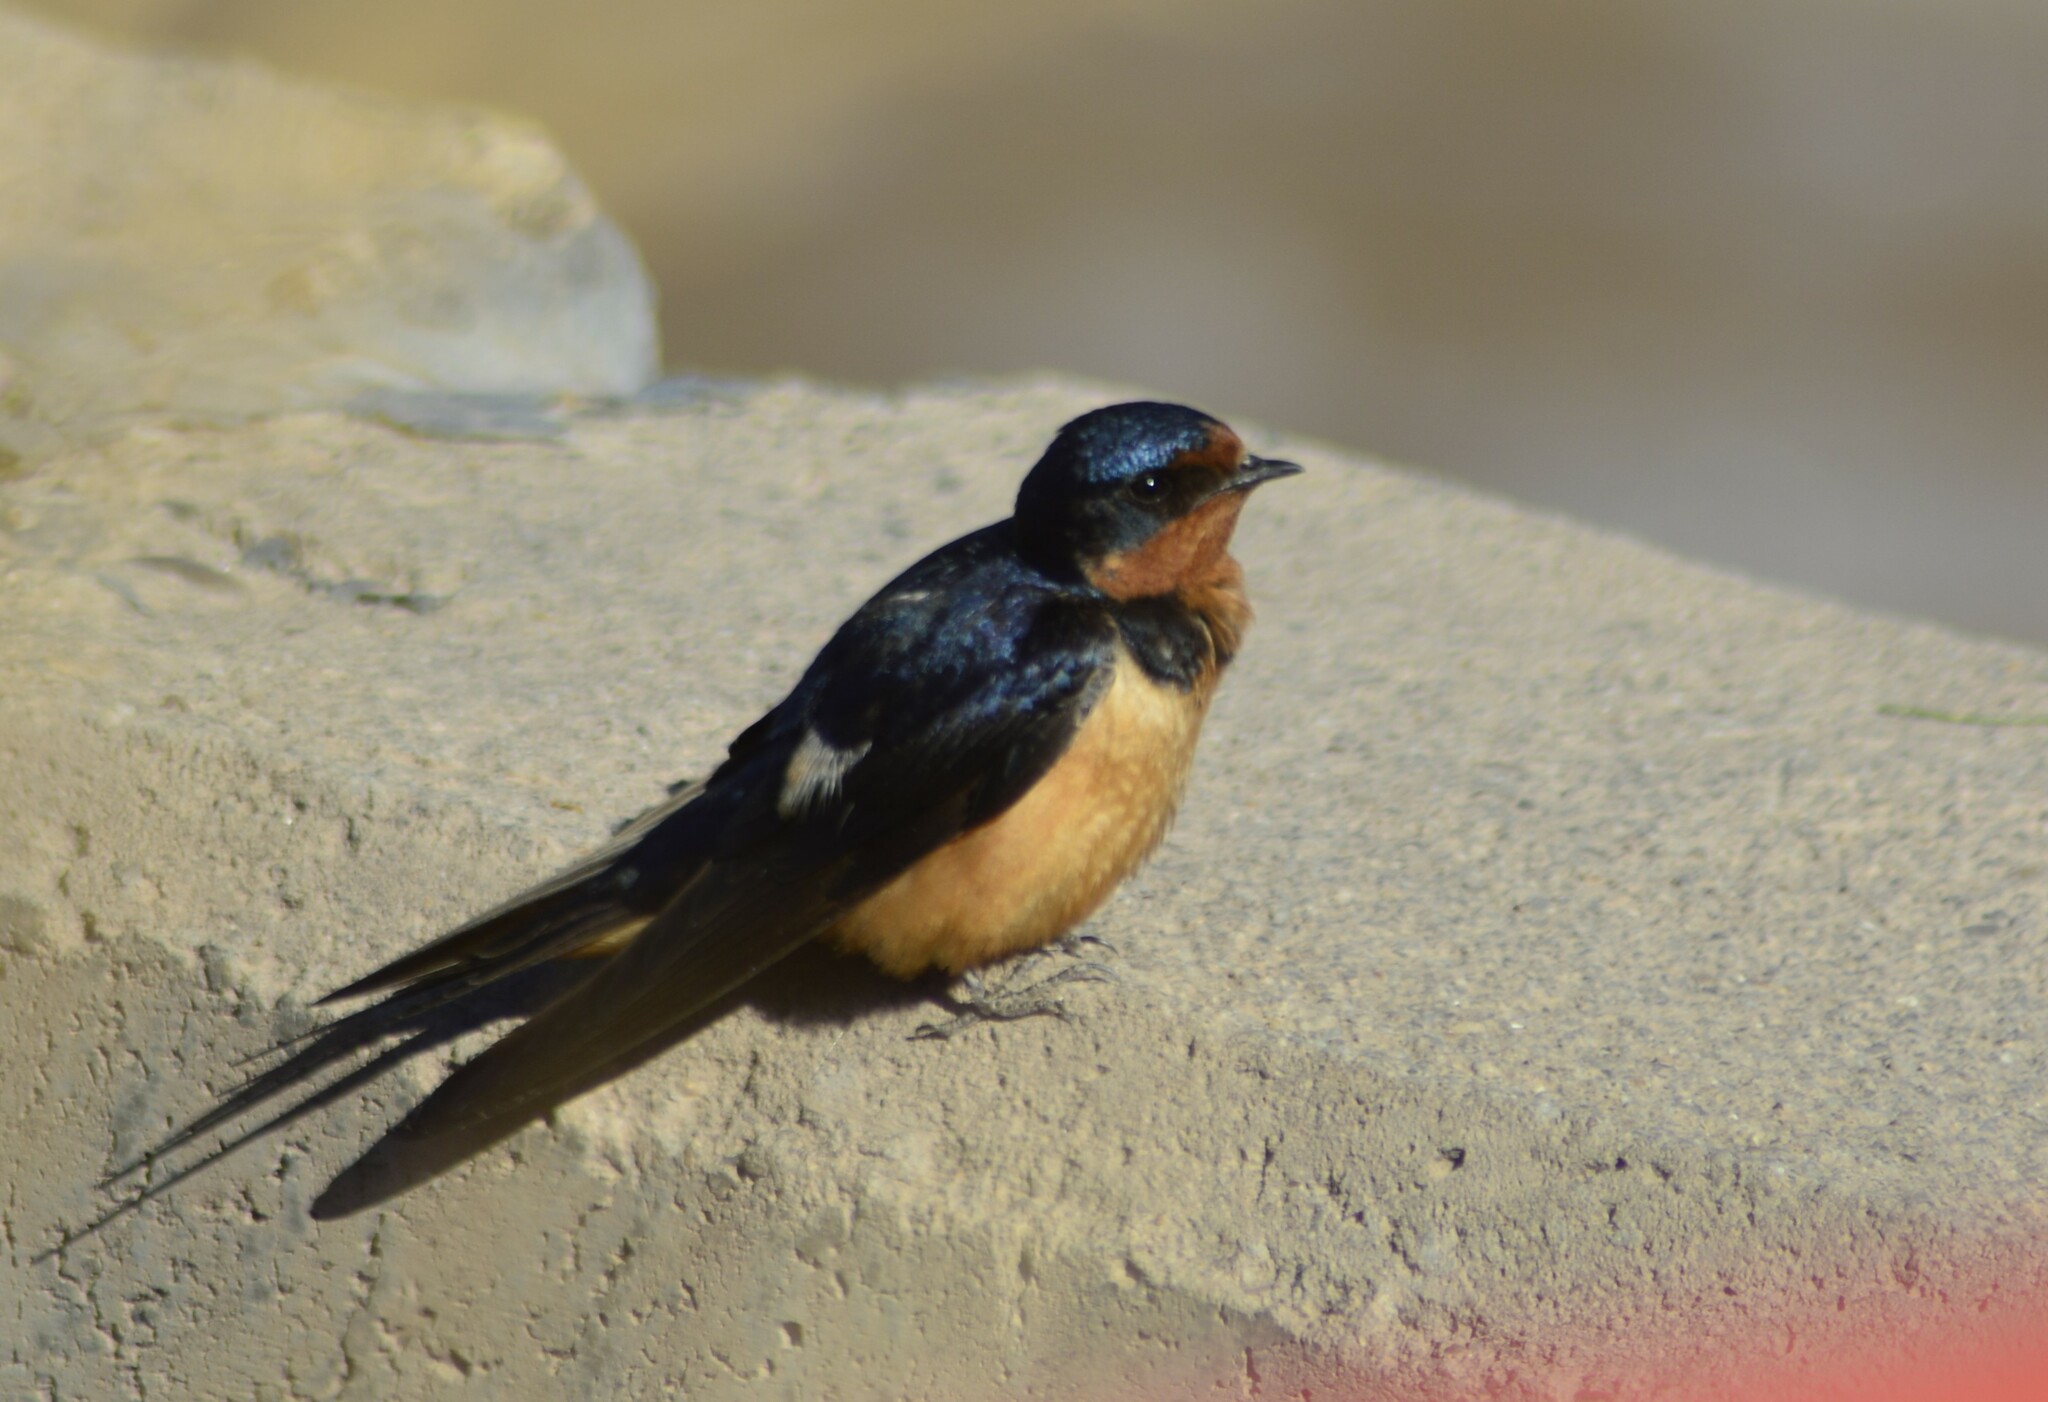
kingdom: Animalia
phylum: Chordata
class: Aves
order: Passeriformes
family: Hirundinidae
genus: Hirundo
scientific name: Hirundo rustica
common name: Barn swallow
